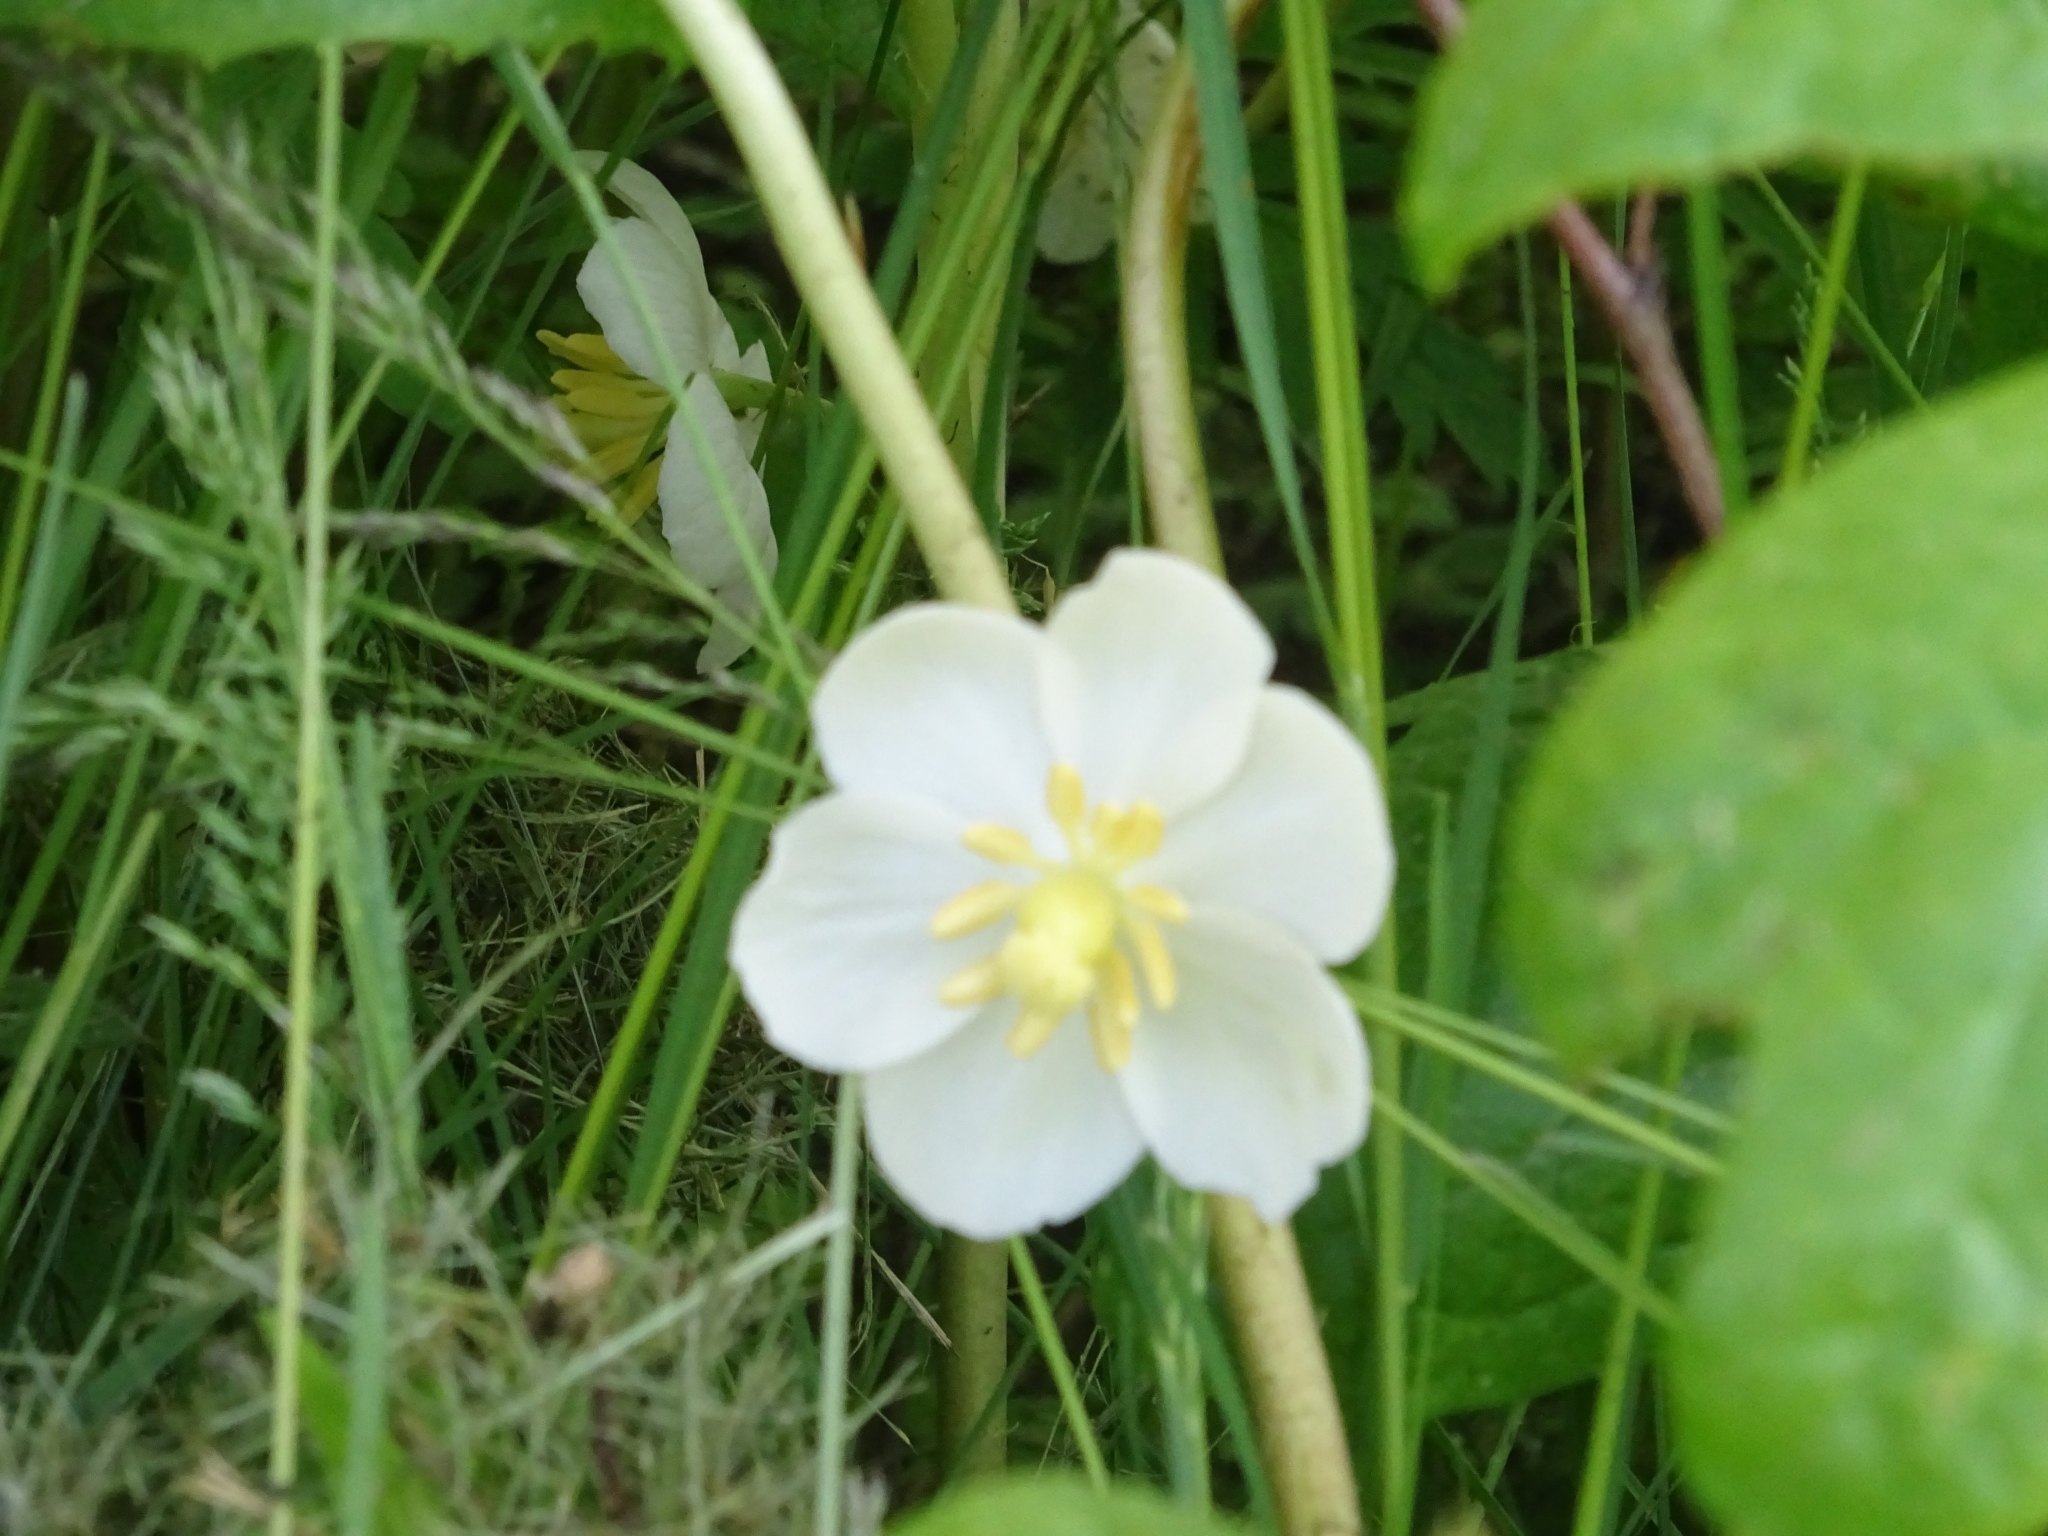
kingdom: Plantae
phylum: Tracheophyta
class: Magnoliopsida
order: Ranunculales
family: Berberidaceae
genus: Podophyllum
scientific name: Podophyllum peltatum
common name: Wild mandrake
